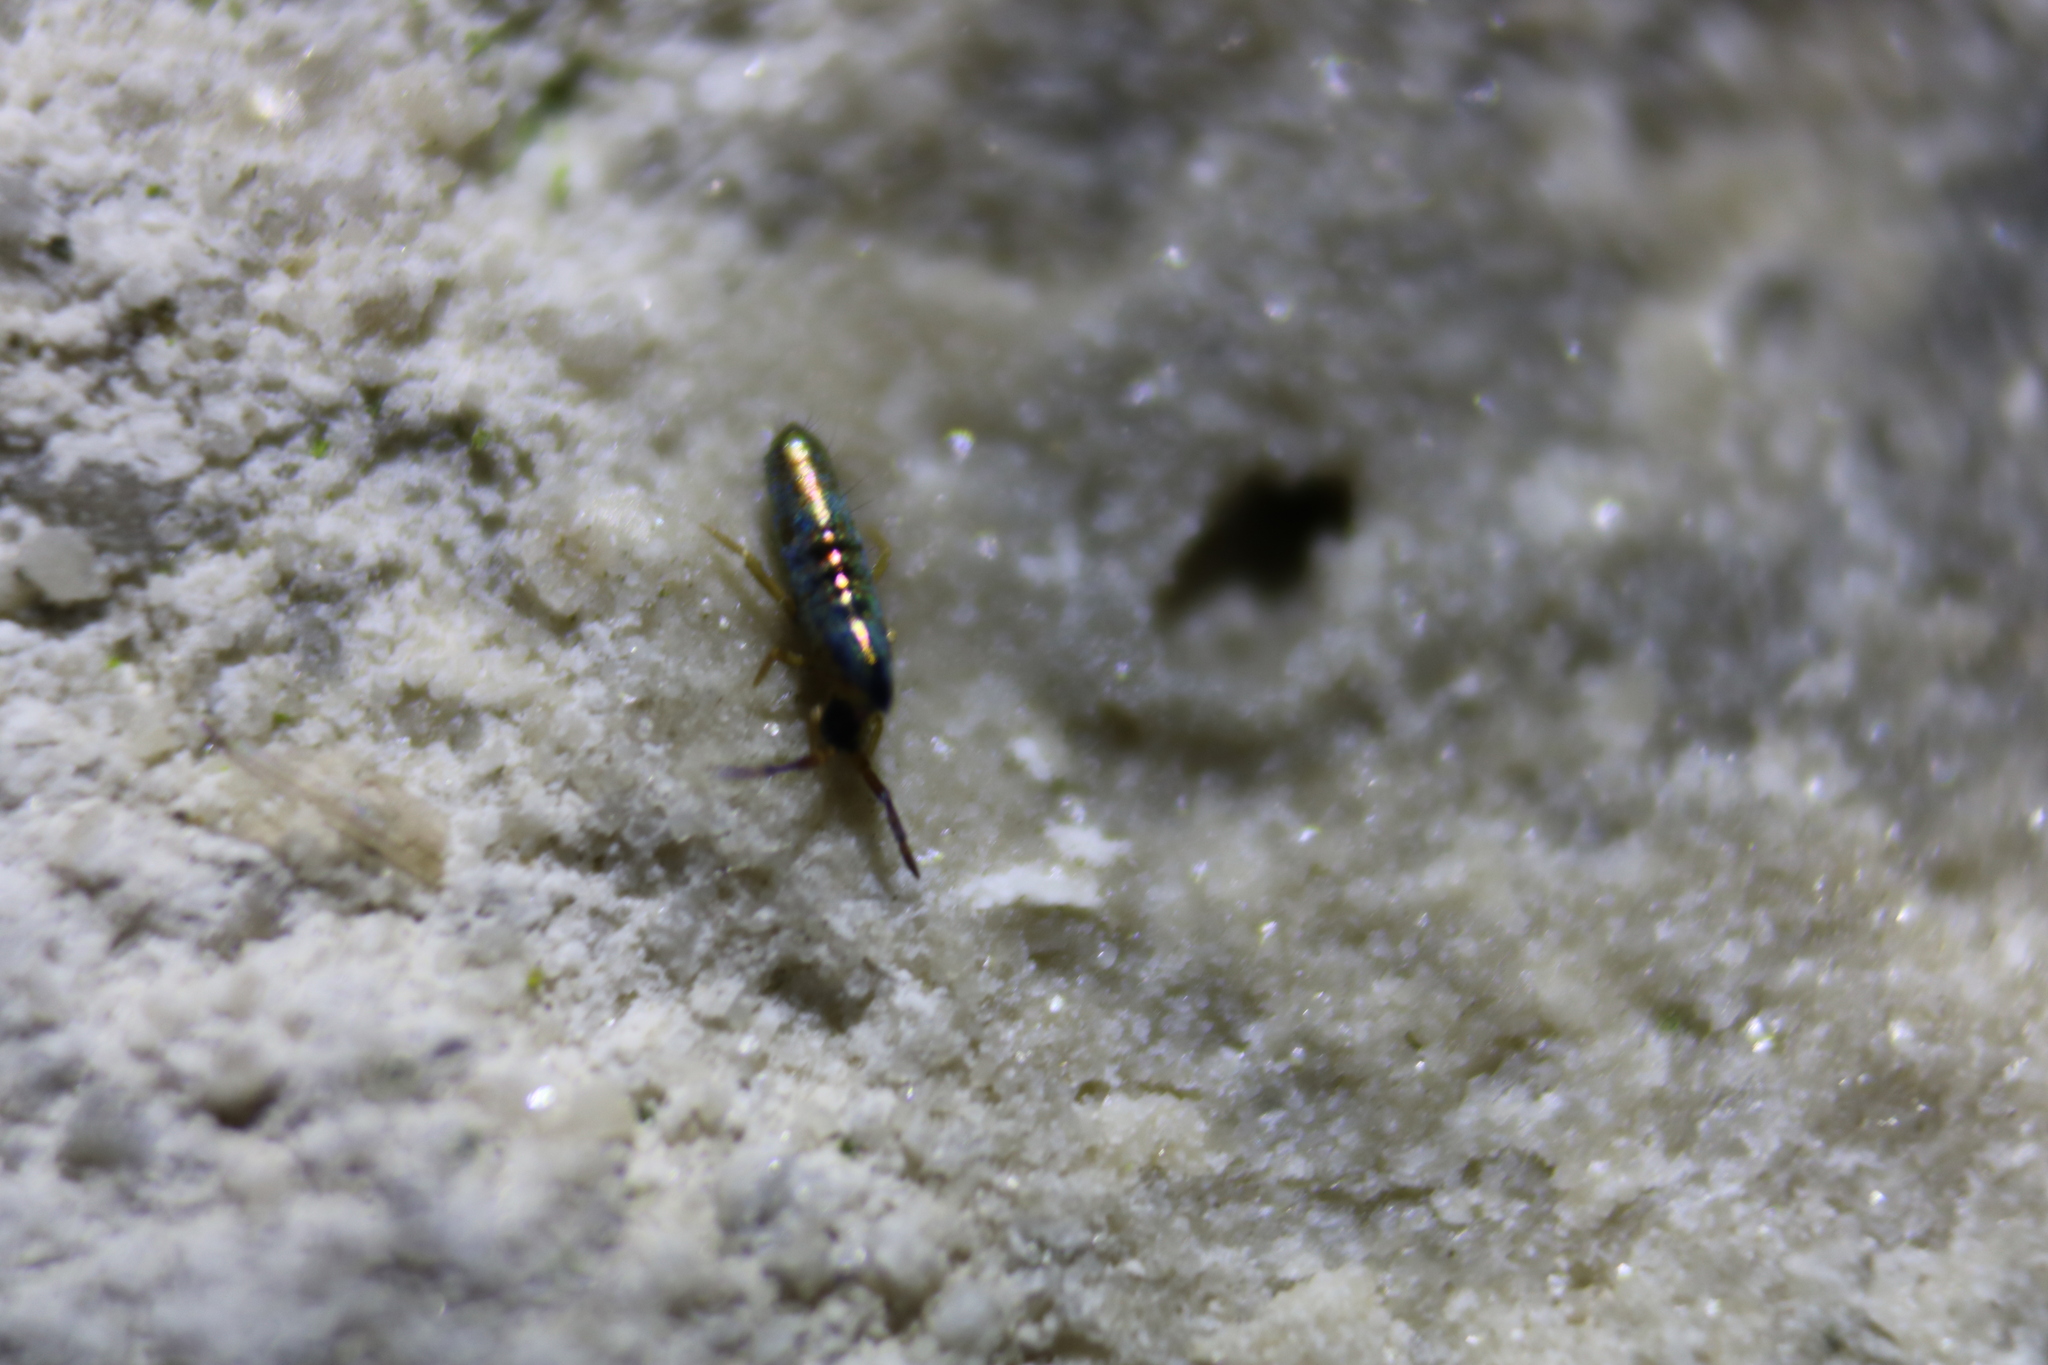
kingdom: Animalia
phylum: Arthropoda
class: Collembola
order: Entomobryomorpha
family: Entomobryidae
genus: Lepidocyrtus
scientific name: Lepidocyrtus paradoxus
